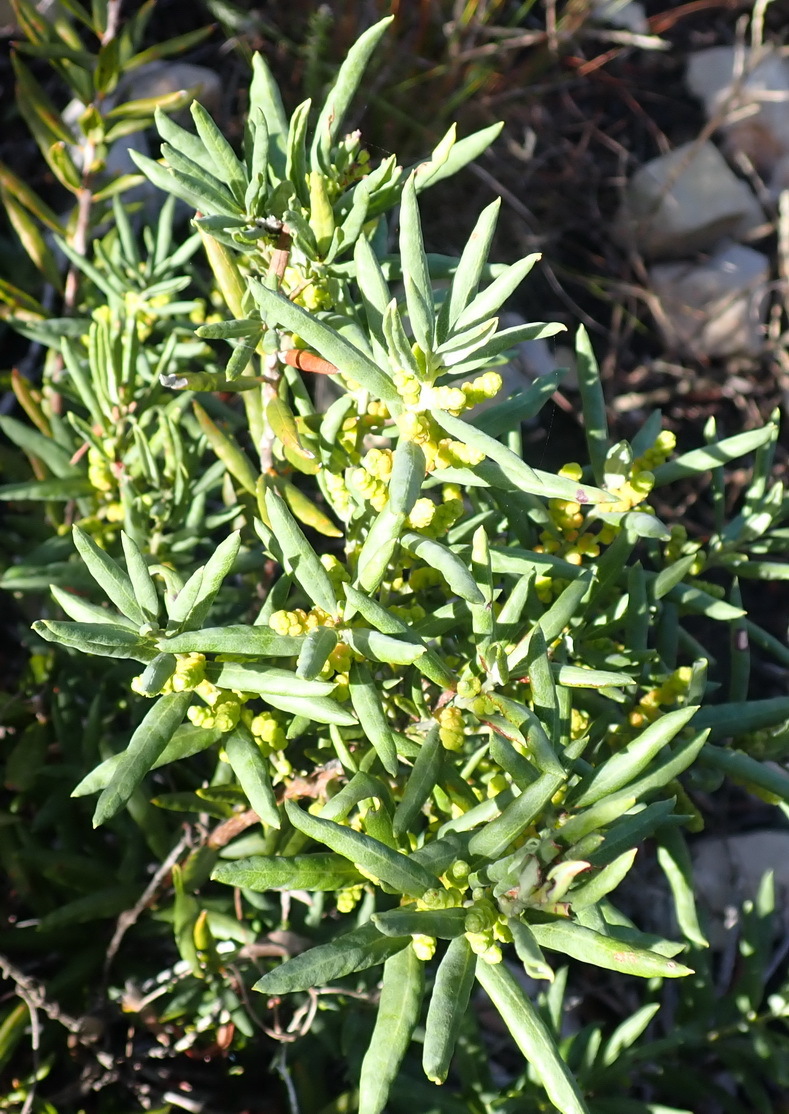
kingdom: Plantae
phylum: Tracheophyta
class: Magnoliopsida
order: Fagales
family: Myricaceae
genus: Morella
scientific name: Morella humilis
